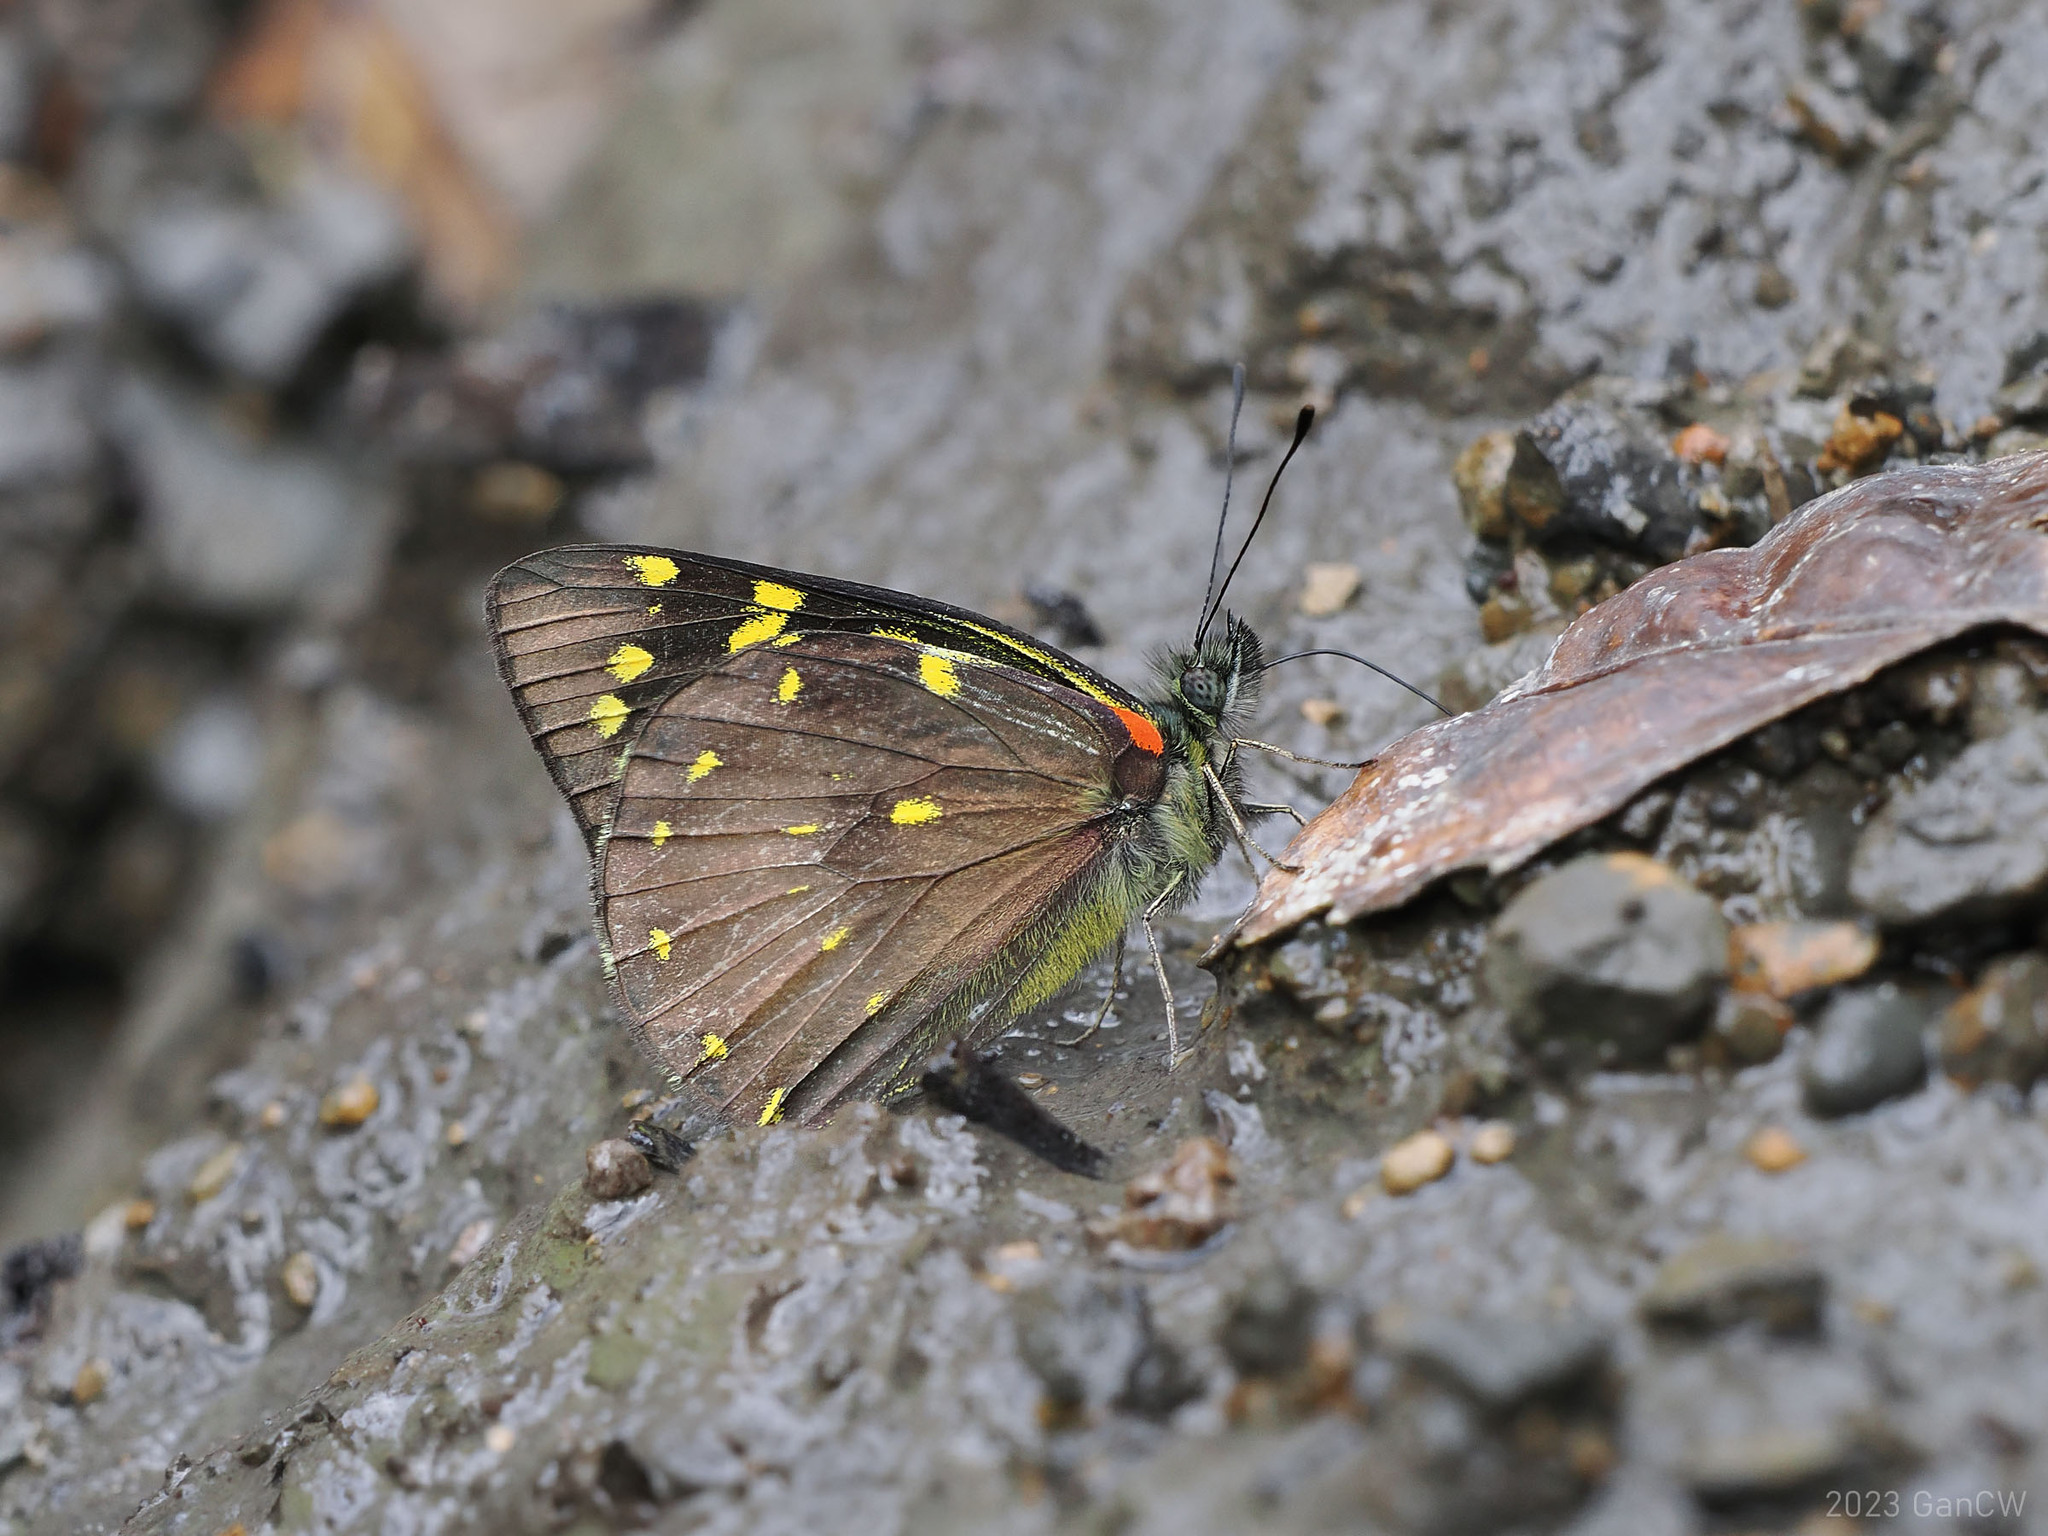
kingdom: Animalia
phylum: Arthropoda
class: Insecta
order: Lepidoptera
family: Pieridae
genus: Delias
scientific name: Delias microsticha
